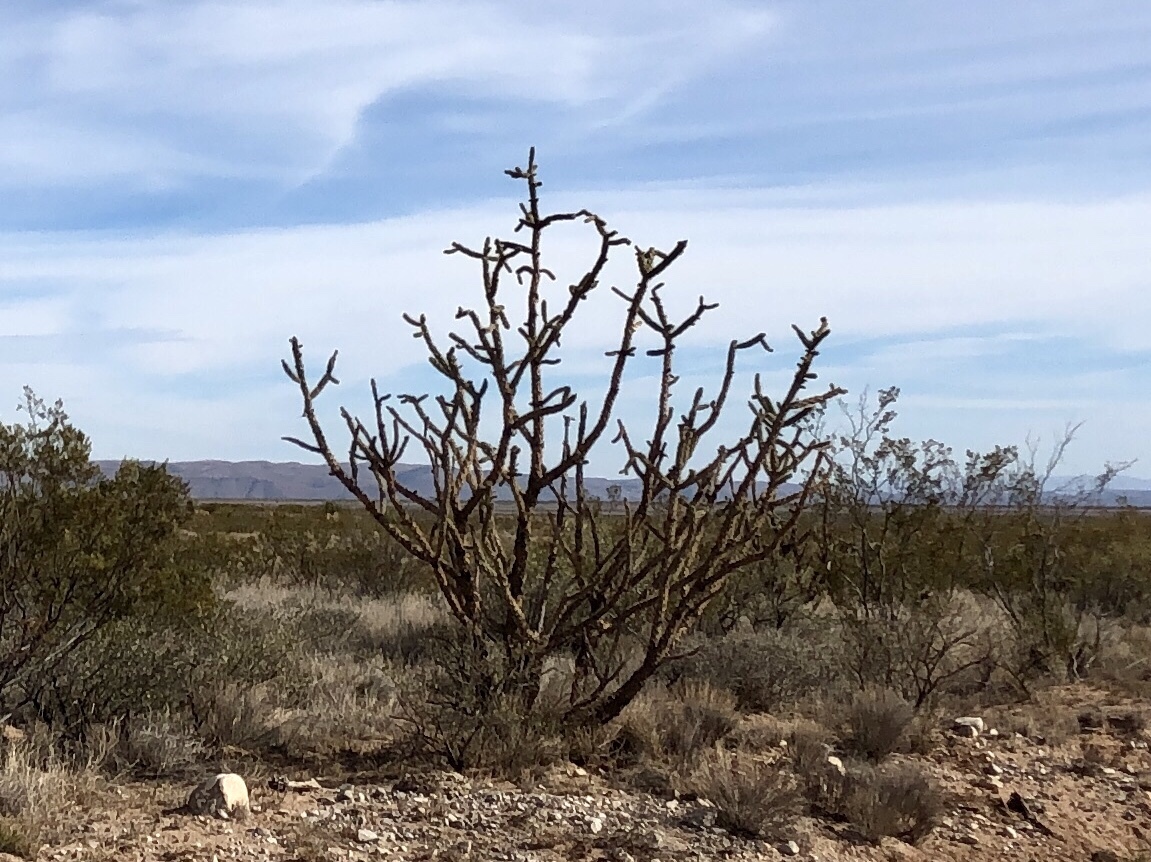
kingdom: Plantae
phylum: Tracheophyta
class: Magnoliopsida
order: Caryophyllales
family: Cactaceae
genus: Cylindropuntia
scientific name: Cylindropuntia imbricata
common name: Candelabrum cactus
